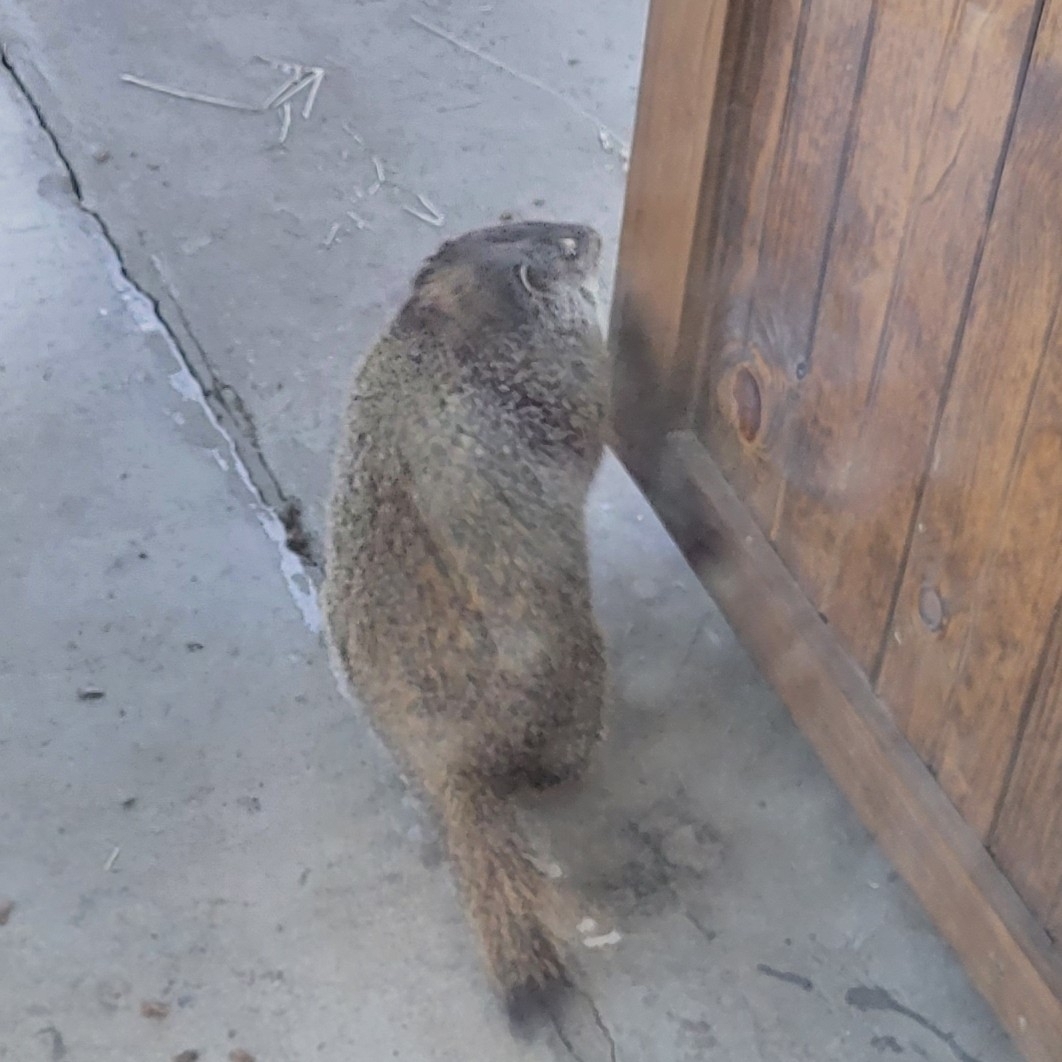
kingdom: Animalia
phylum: Chordata
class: Mammalia
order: Rodentia
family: Sciuridae
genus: Marmota
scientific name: Marmota monax
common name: Groundhog
